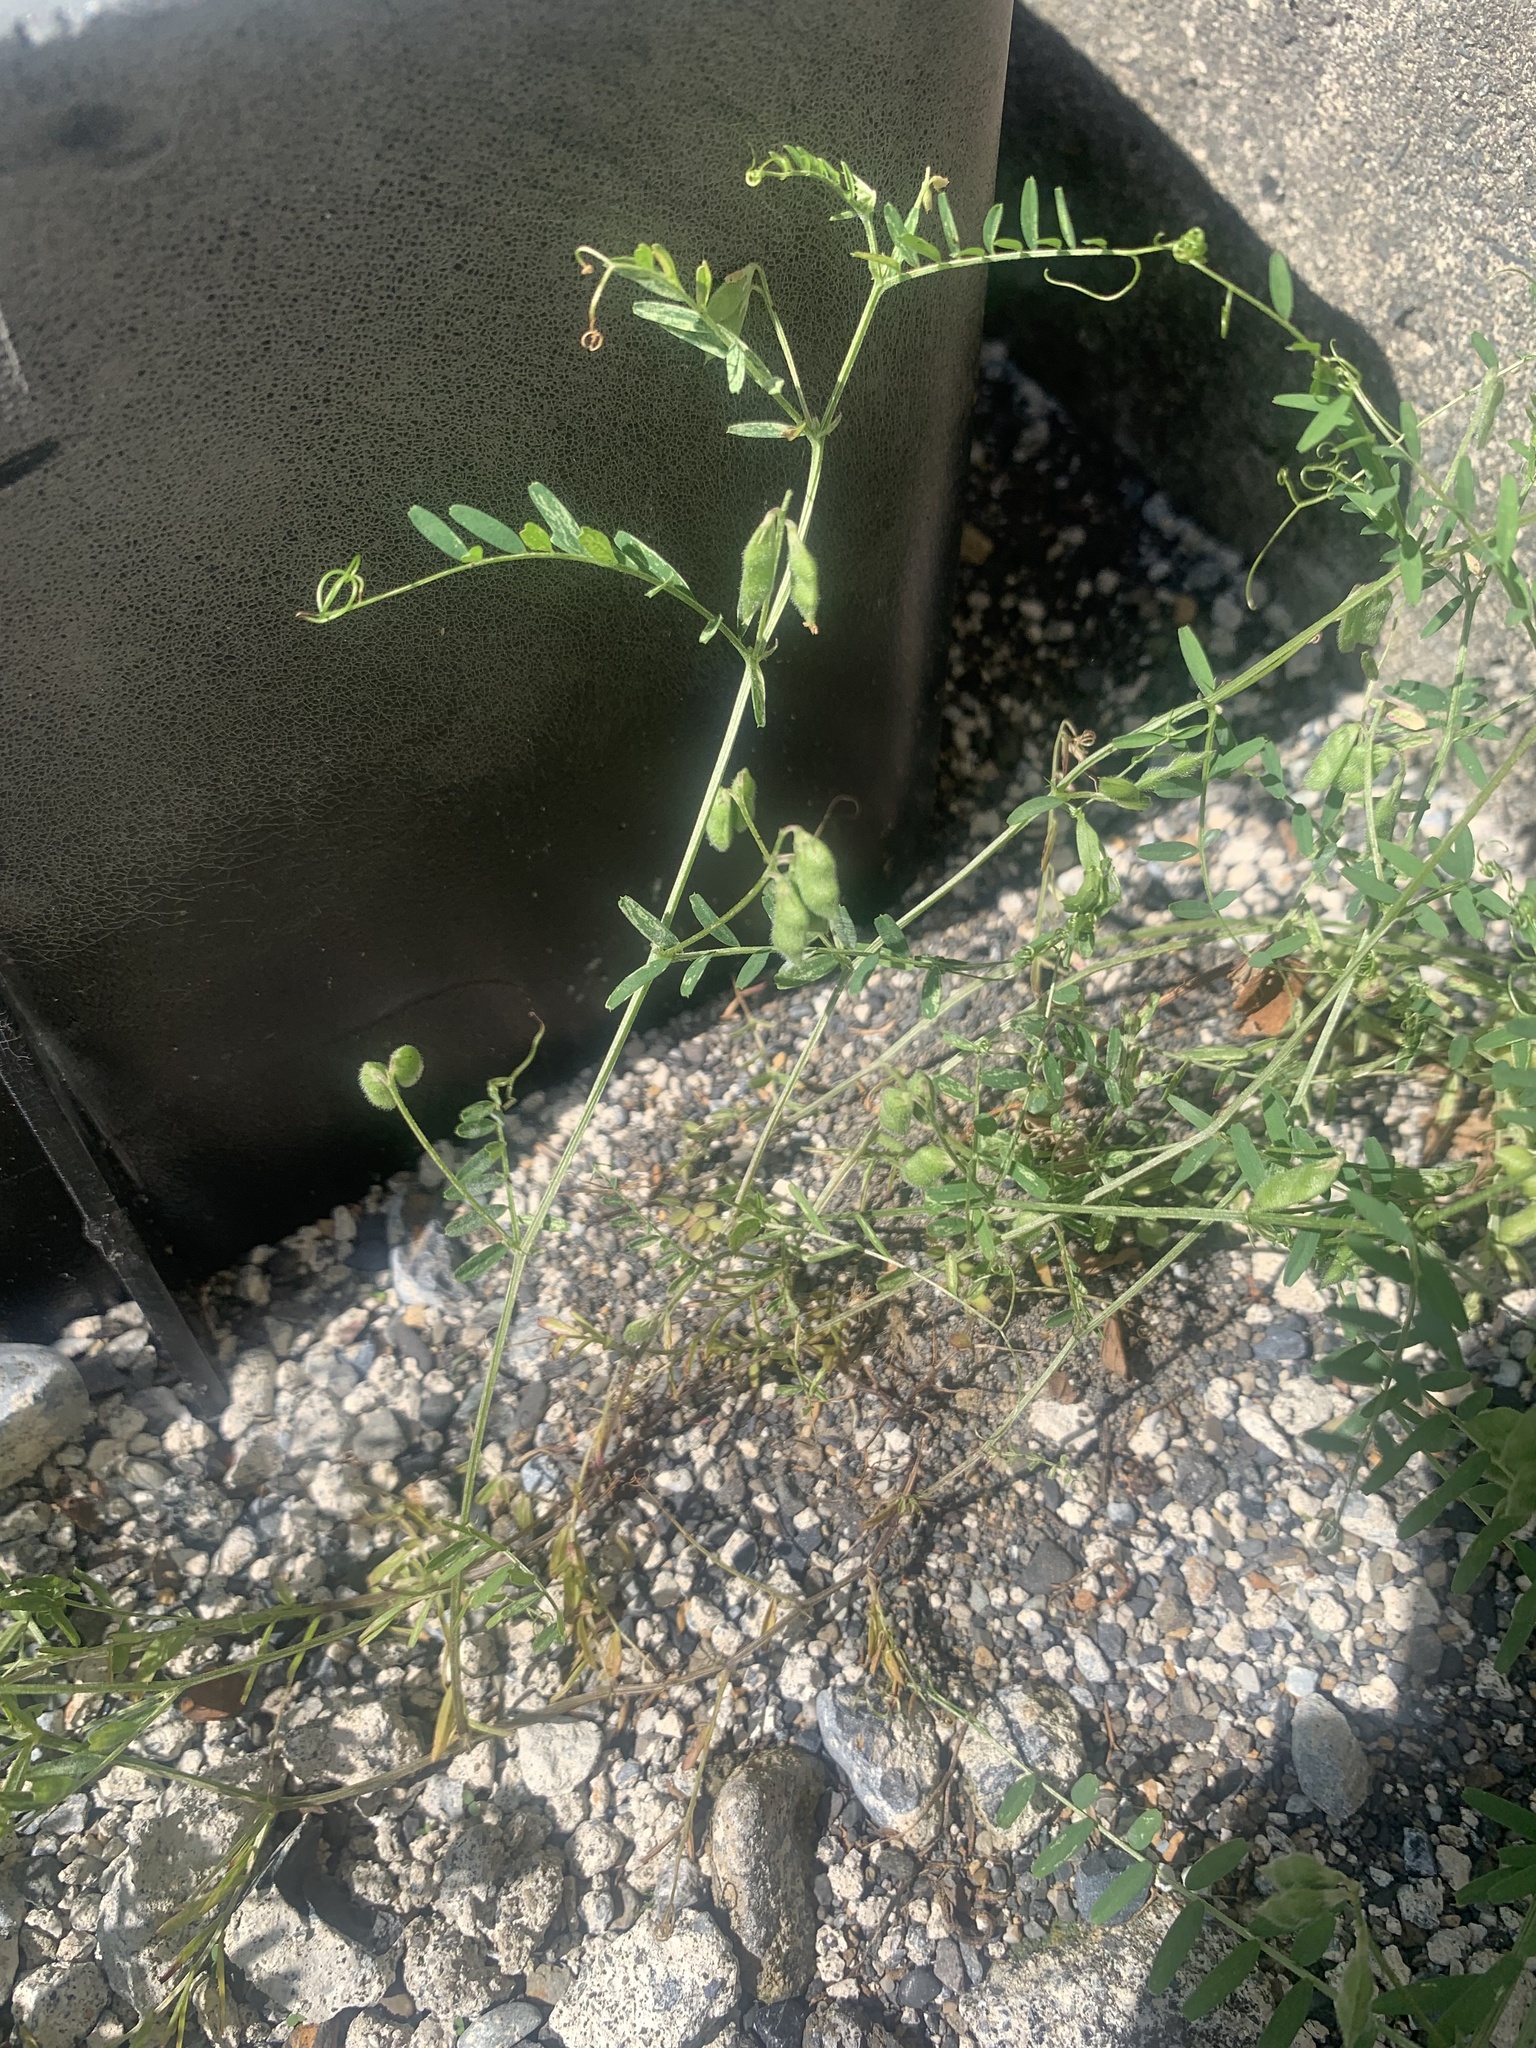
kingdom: Plantae
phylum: Tracheophyta
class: Magnoliopsida
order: Fabales
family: Fabaceae
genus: Vicia
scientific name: Vicia hirsuta
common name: Tiny vetch
